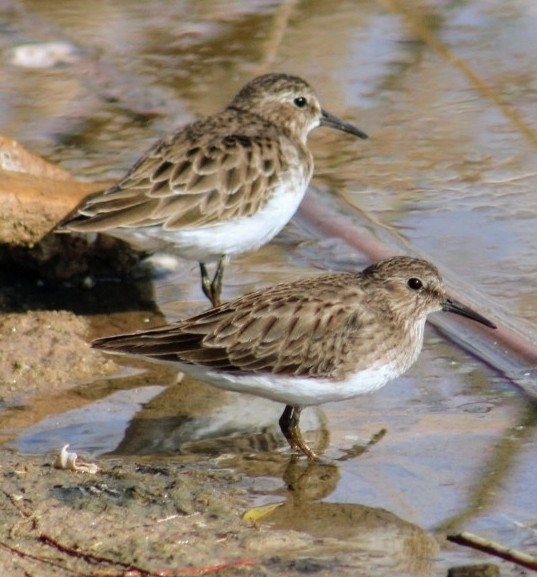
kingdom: Animalia
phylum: Chordata
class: Aves
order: Charadriiformes
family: Scolopacidae
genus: Calidris
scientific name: Calidris minutilla
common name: Least sandpiper
